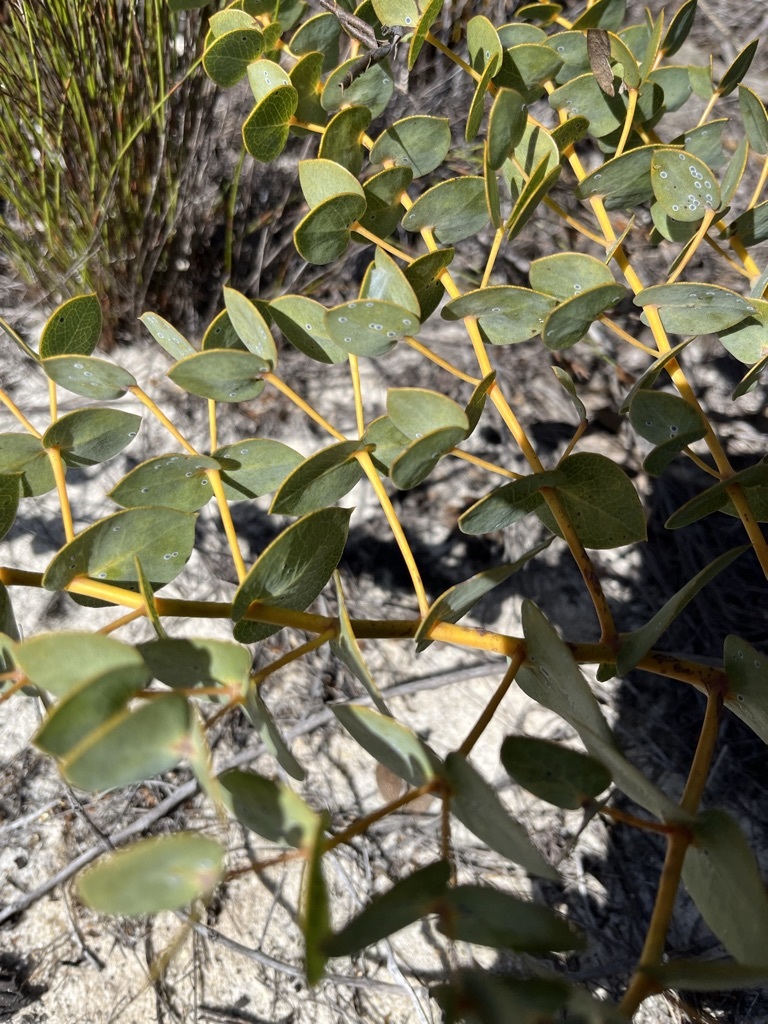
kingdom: Plantae
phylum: Tracheophyta
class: Magnoliopsida
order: Fabales
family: Fabaceae
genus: Rafnia
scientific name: Rafnia acuminata
